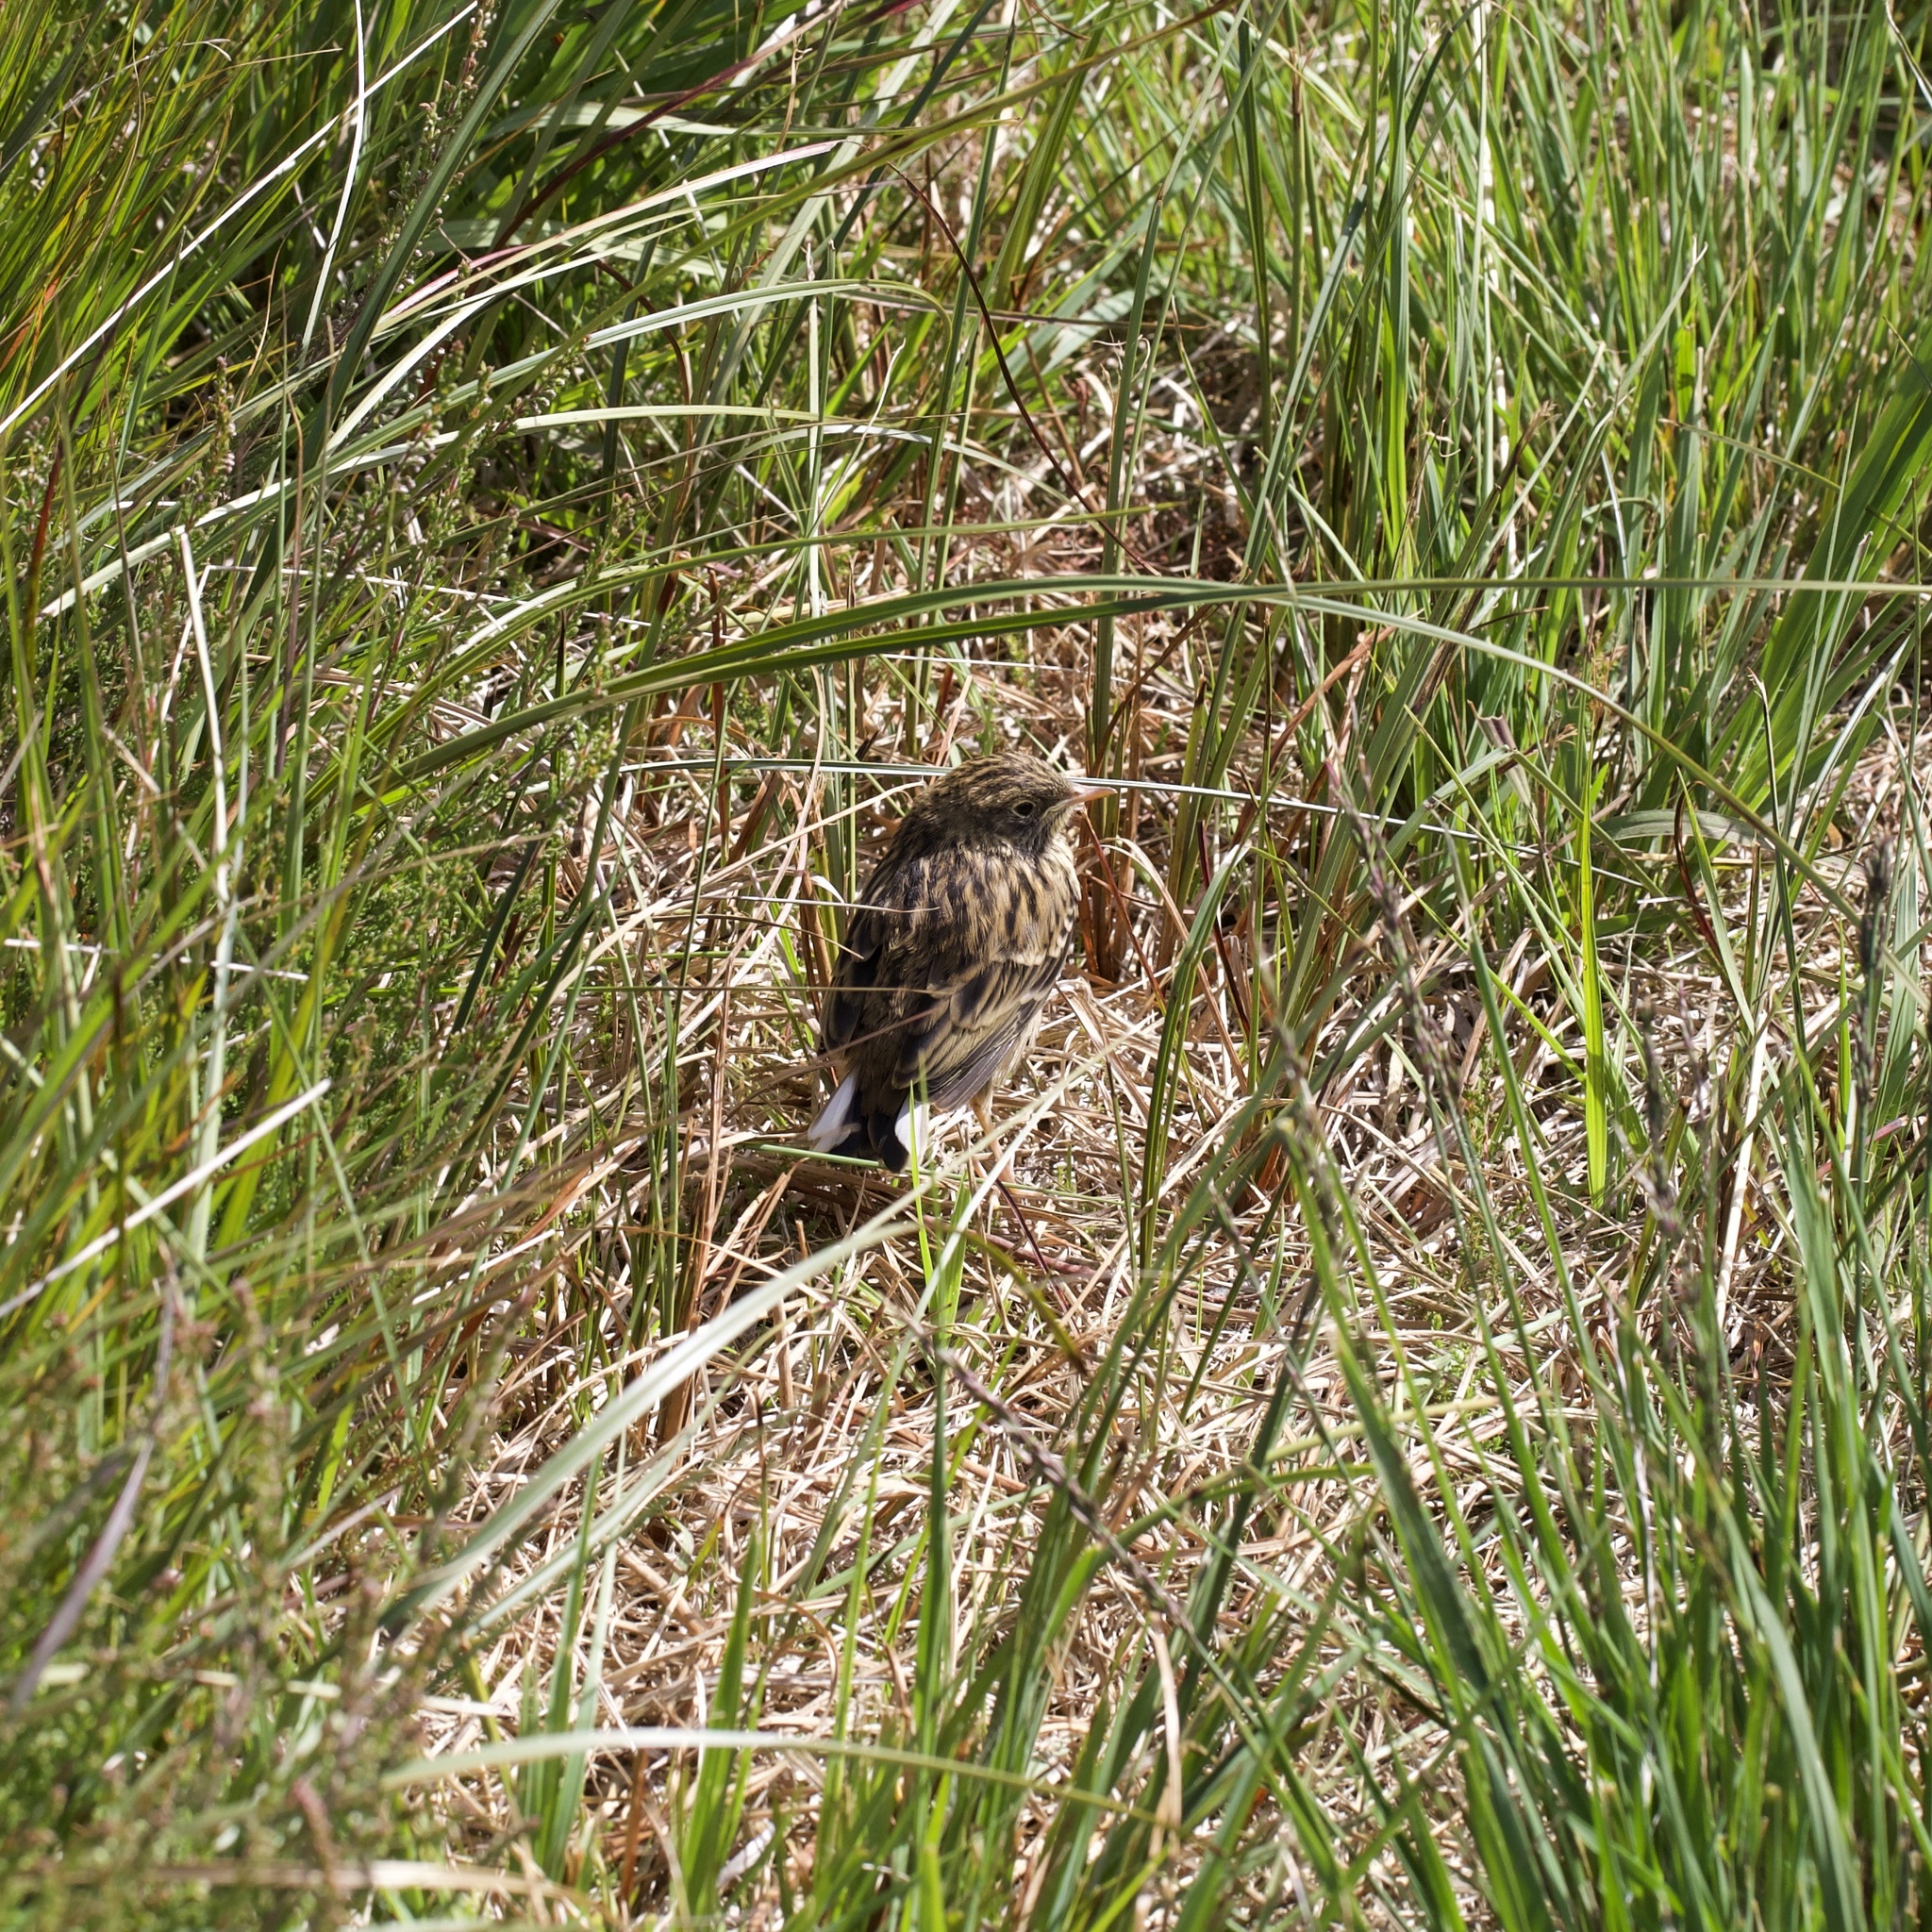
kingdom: Animalia
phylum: Chordata
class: Aves
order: Passeriformes
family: Motacillidae
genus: Anthus
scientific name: Anthus pratensis
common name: Meadow pipit
